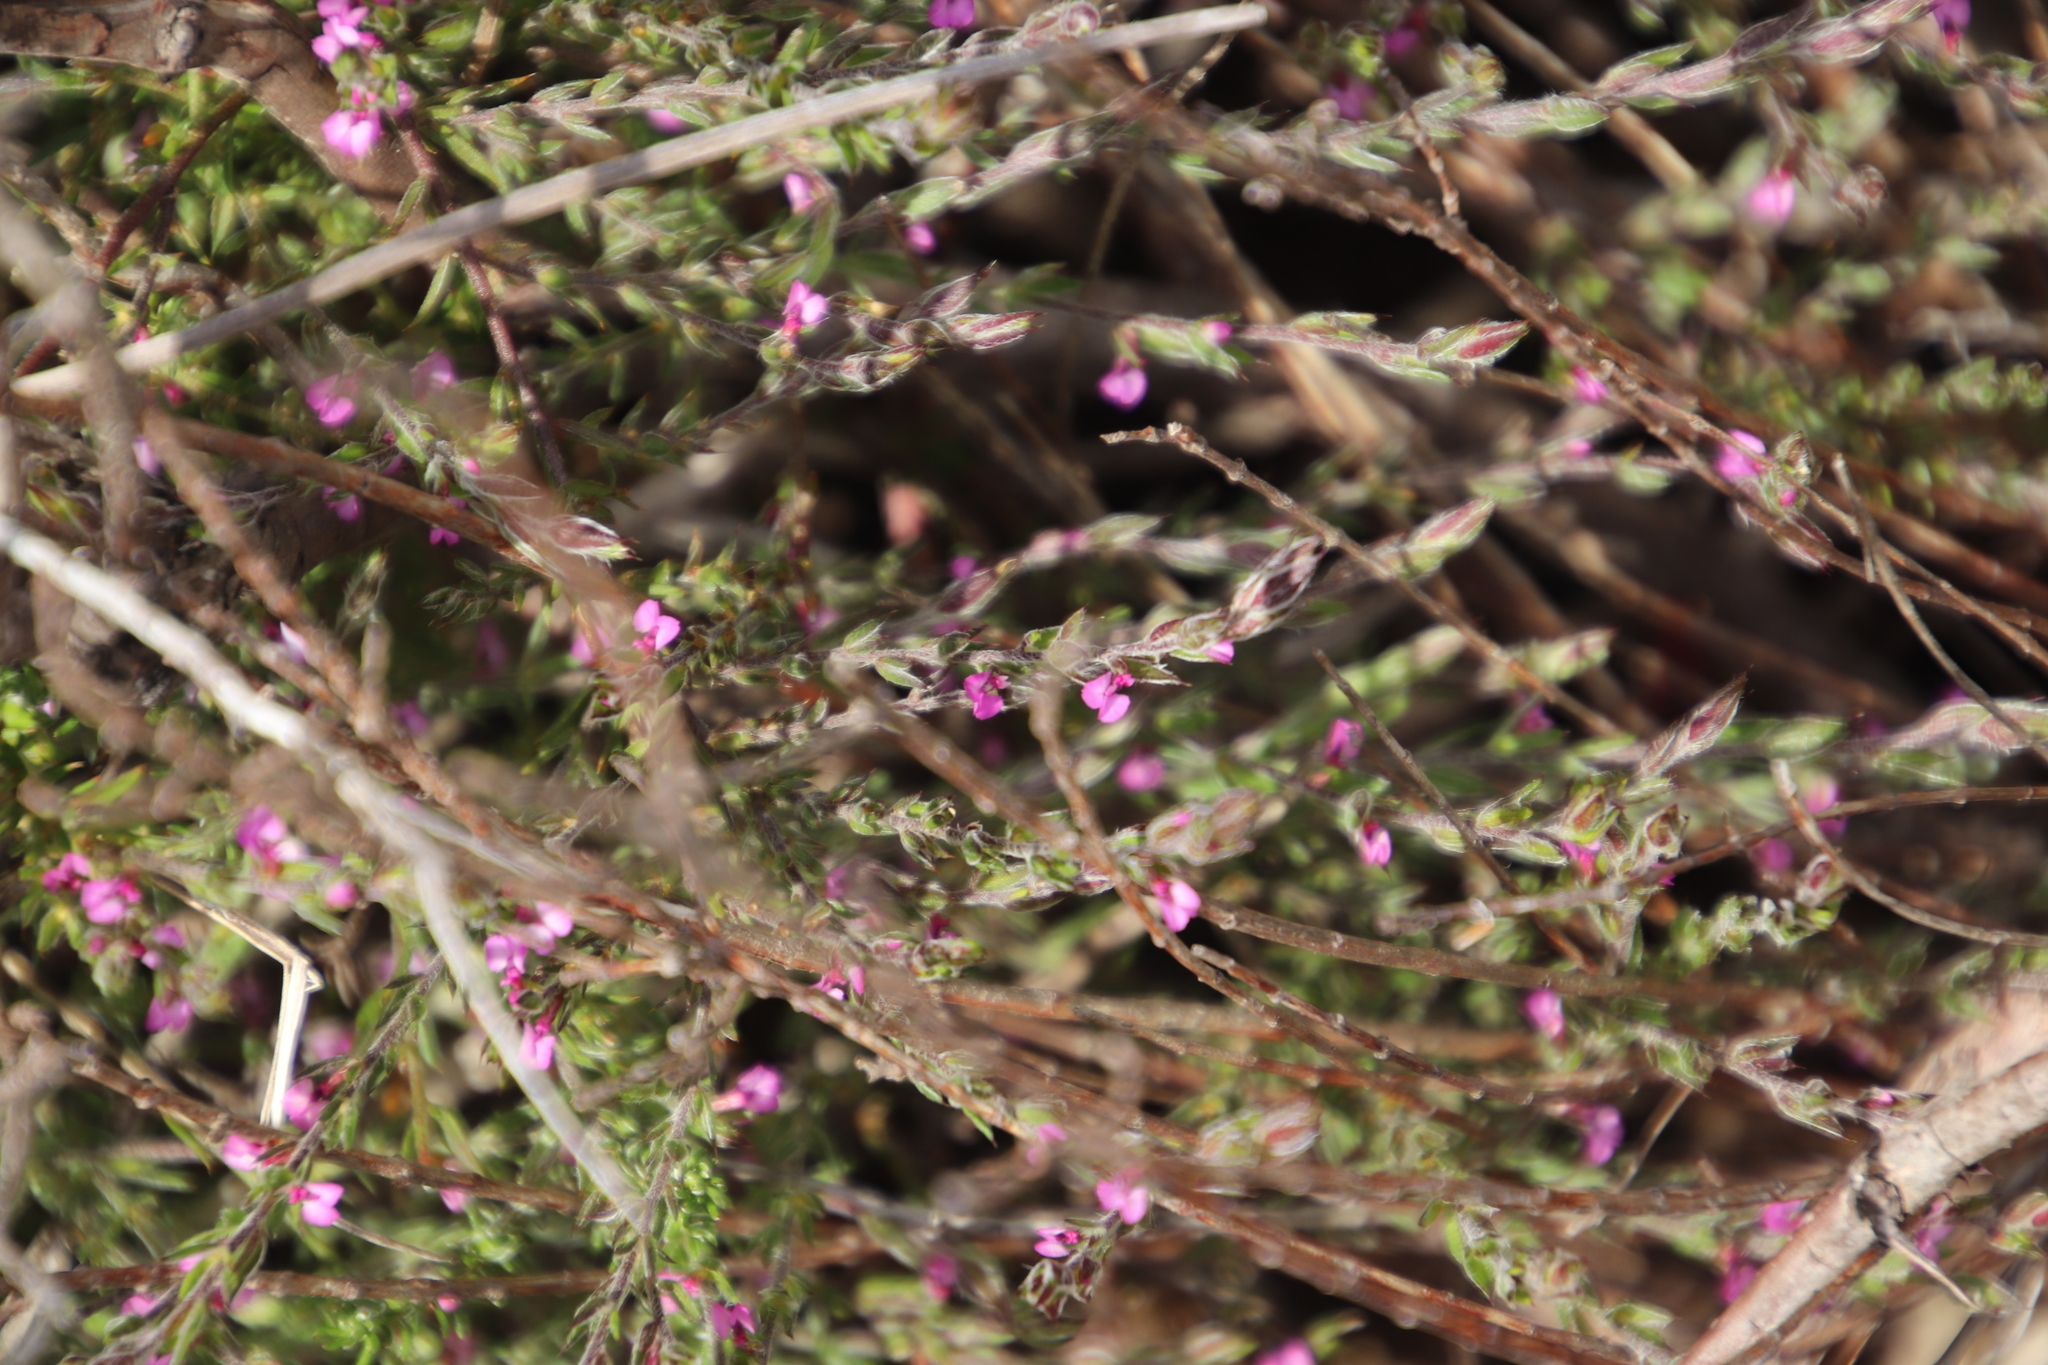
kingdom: Plantae
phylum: Tracheophyta
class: Magnoliopsida
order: Fabales
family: Polygalaceae
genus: Muraltia
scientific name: Muraltia stipulacea
